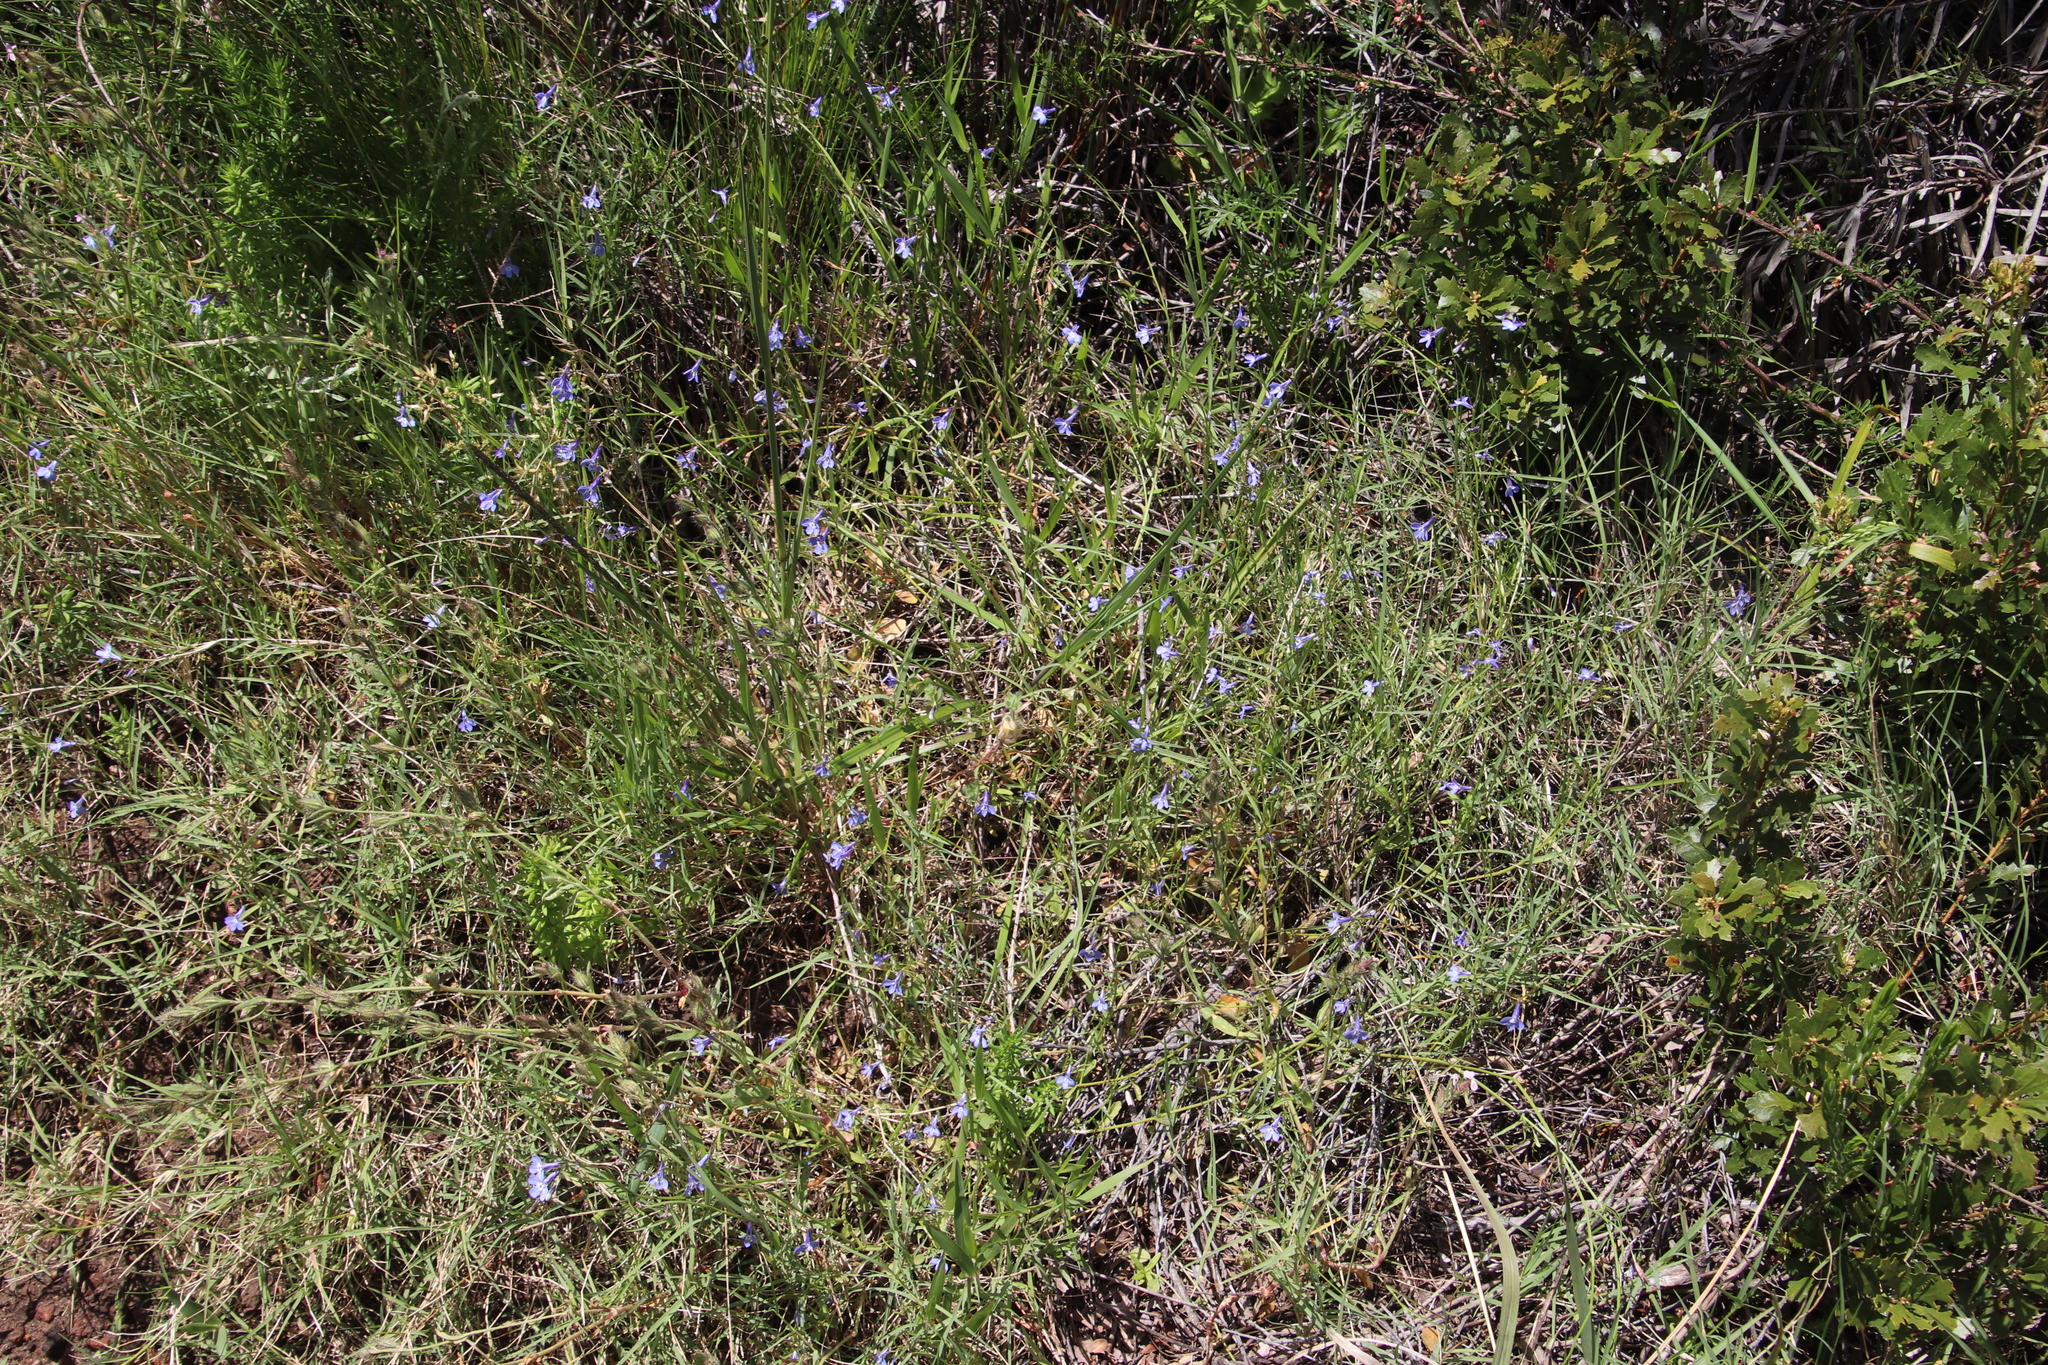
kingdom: Plantae
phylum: Tracheophyta
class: Magnoliopsida
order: Asterales
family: Campanulaceae
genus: Lobelia
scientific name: Lobelia erinus
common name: Edging lobelia
